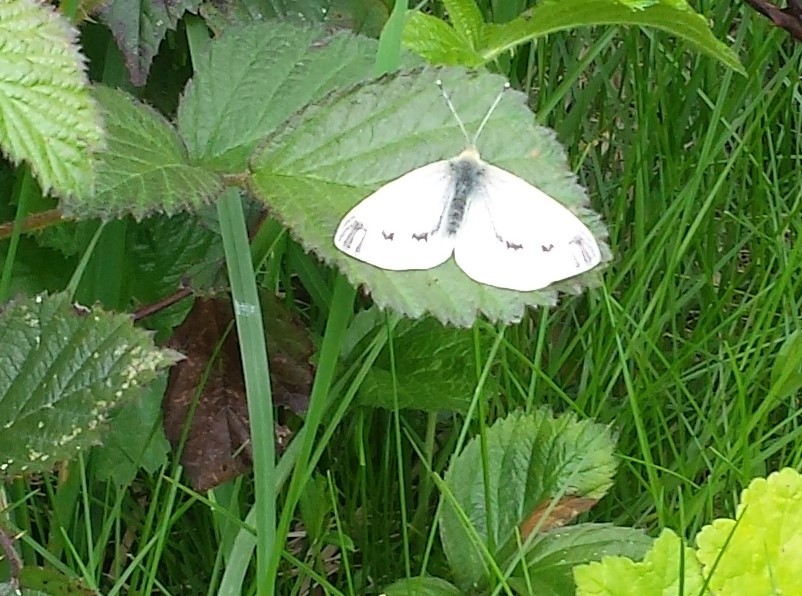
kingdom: Animalia
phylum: Arthropoda
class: Insecta
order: Lepidoptera
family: Pieridae
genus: Pieris
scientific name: Pieris napi
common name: Green-veined white
